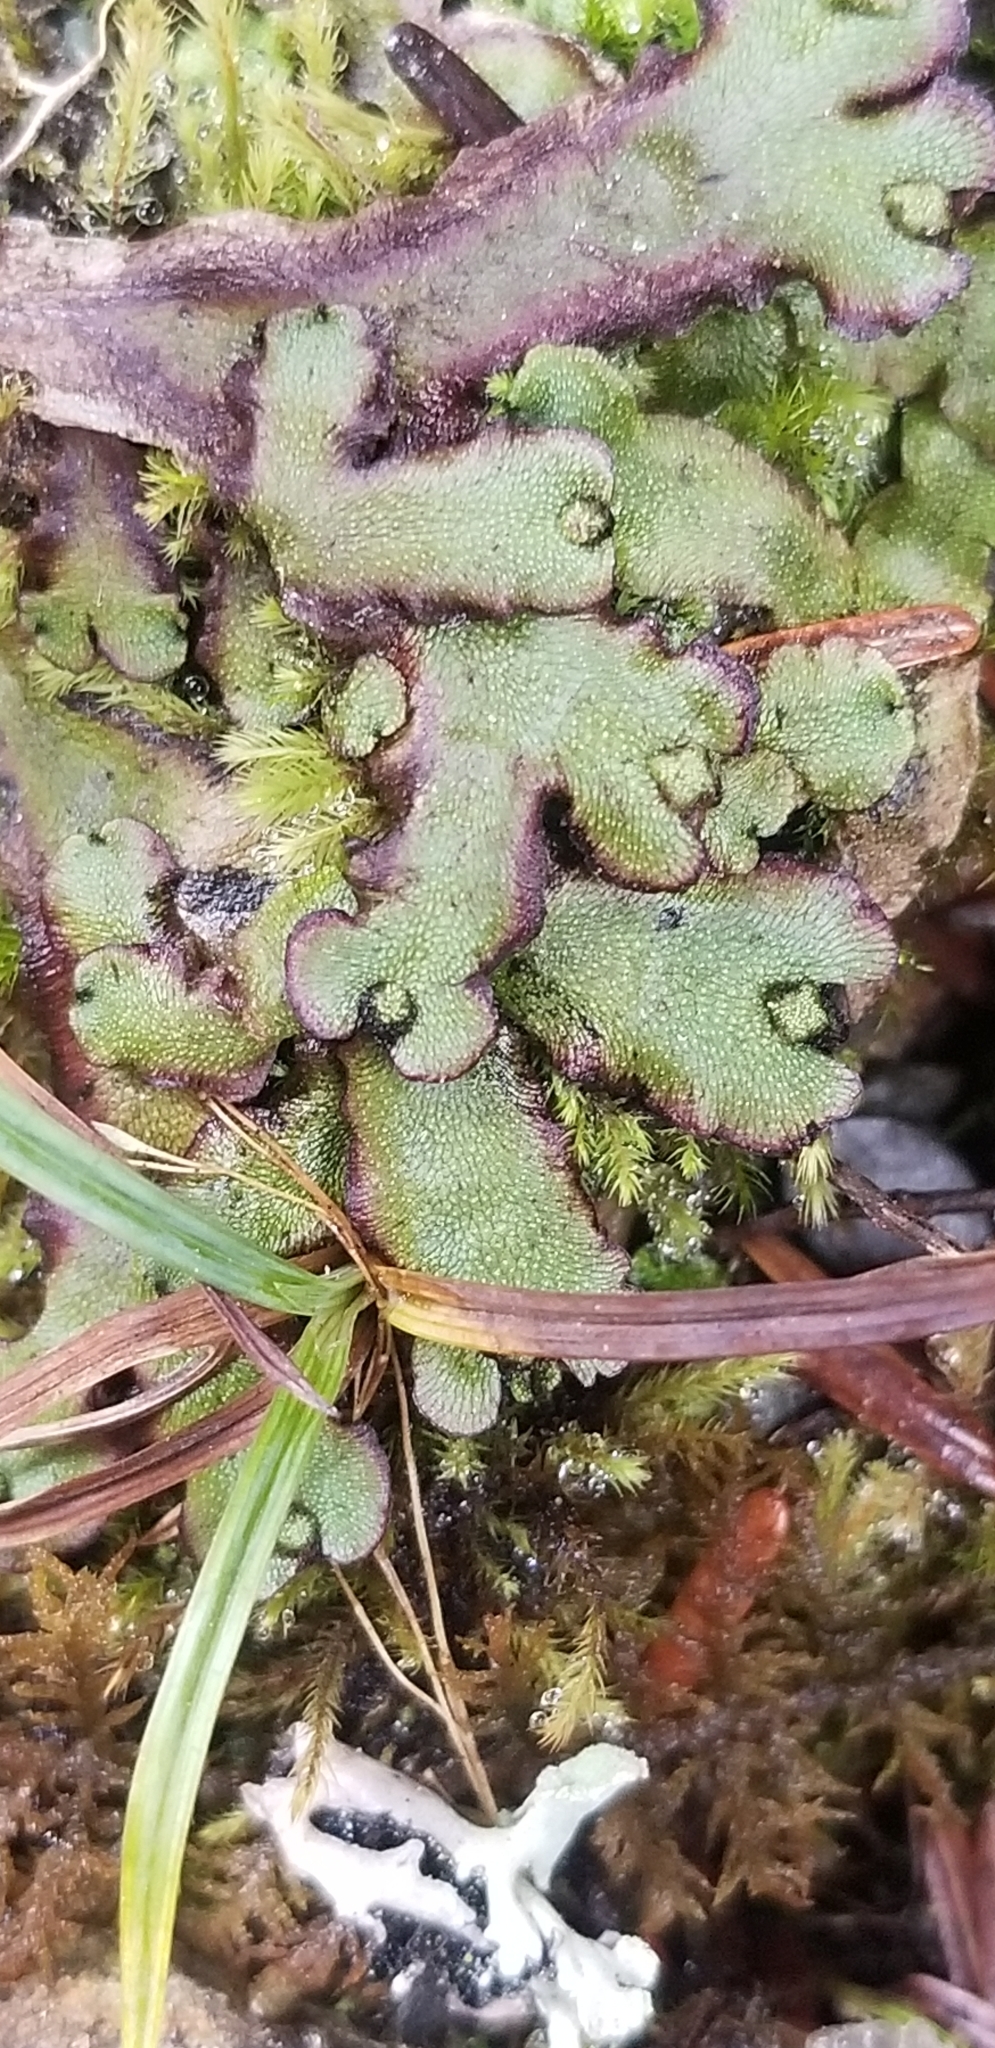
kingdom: Plantae
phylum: Marchantiophyta
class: Marchantiopsida
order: Marchantiales
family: Marchantiaceae
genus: Marchantia
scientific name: Marchantia quadrata
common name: Narrow mushroom-headed liverwort
